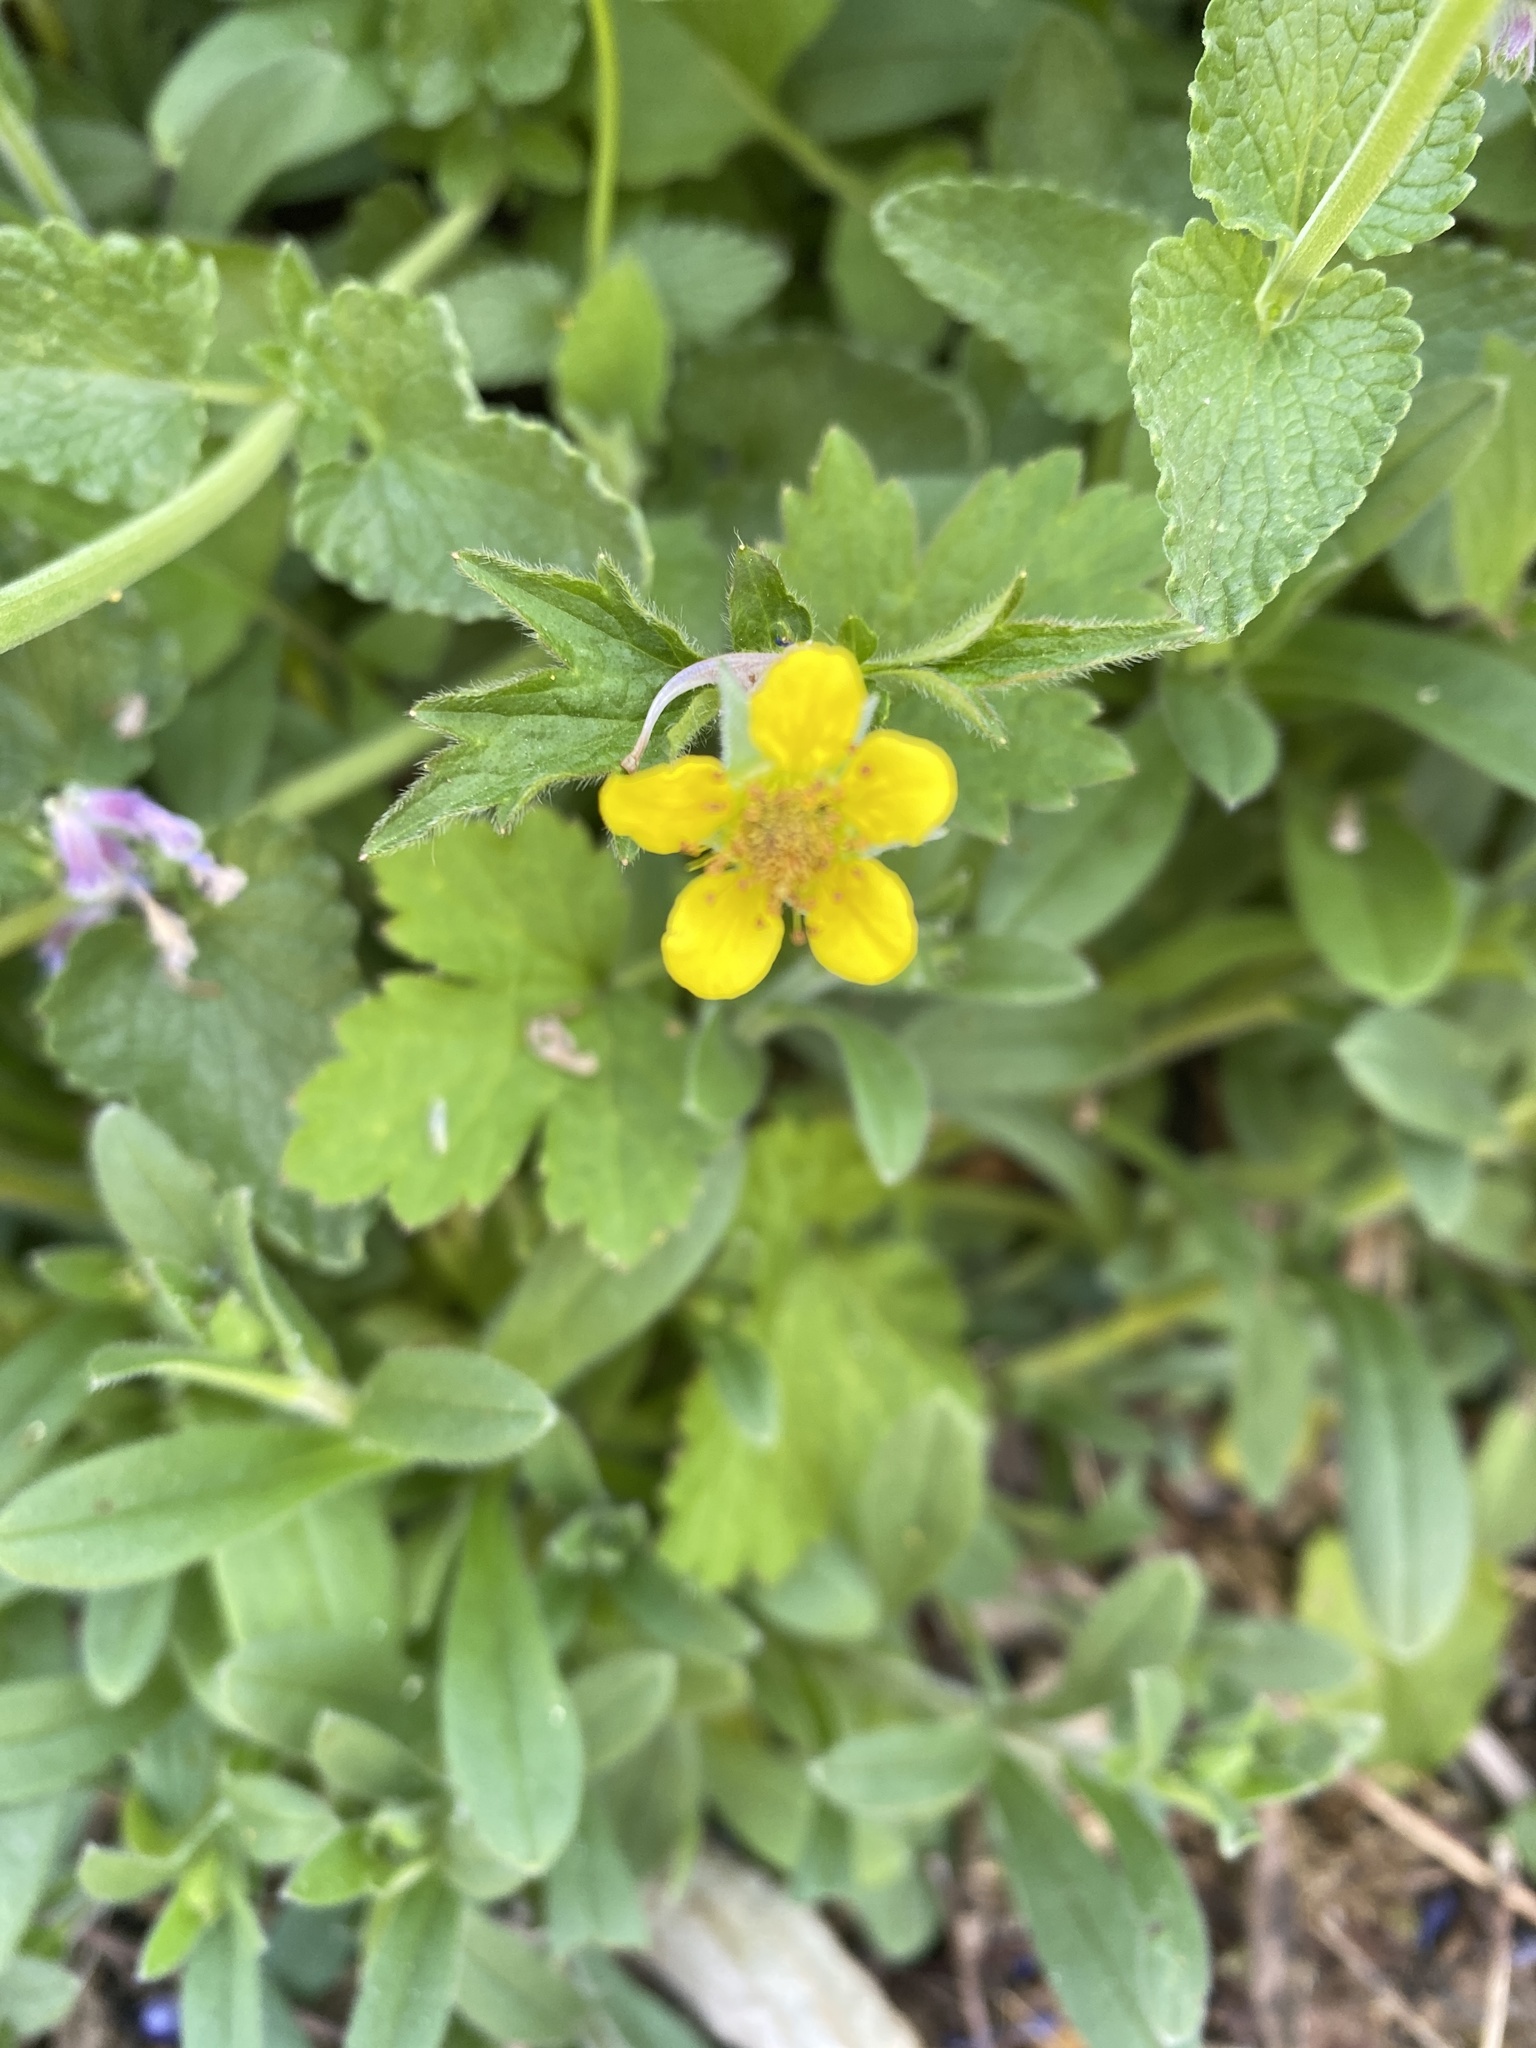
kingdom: Plantae
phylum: Tracheophyta
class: Magnoliopsida
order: Rosales
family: Rosaceae
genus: Geum
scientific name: Geum urbanum
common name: Wood avens
